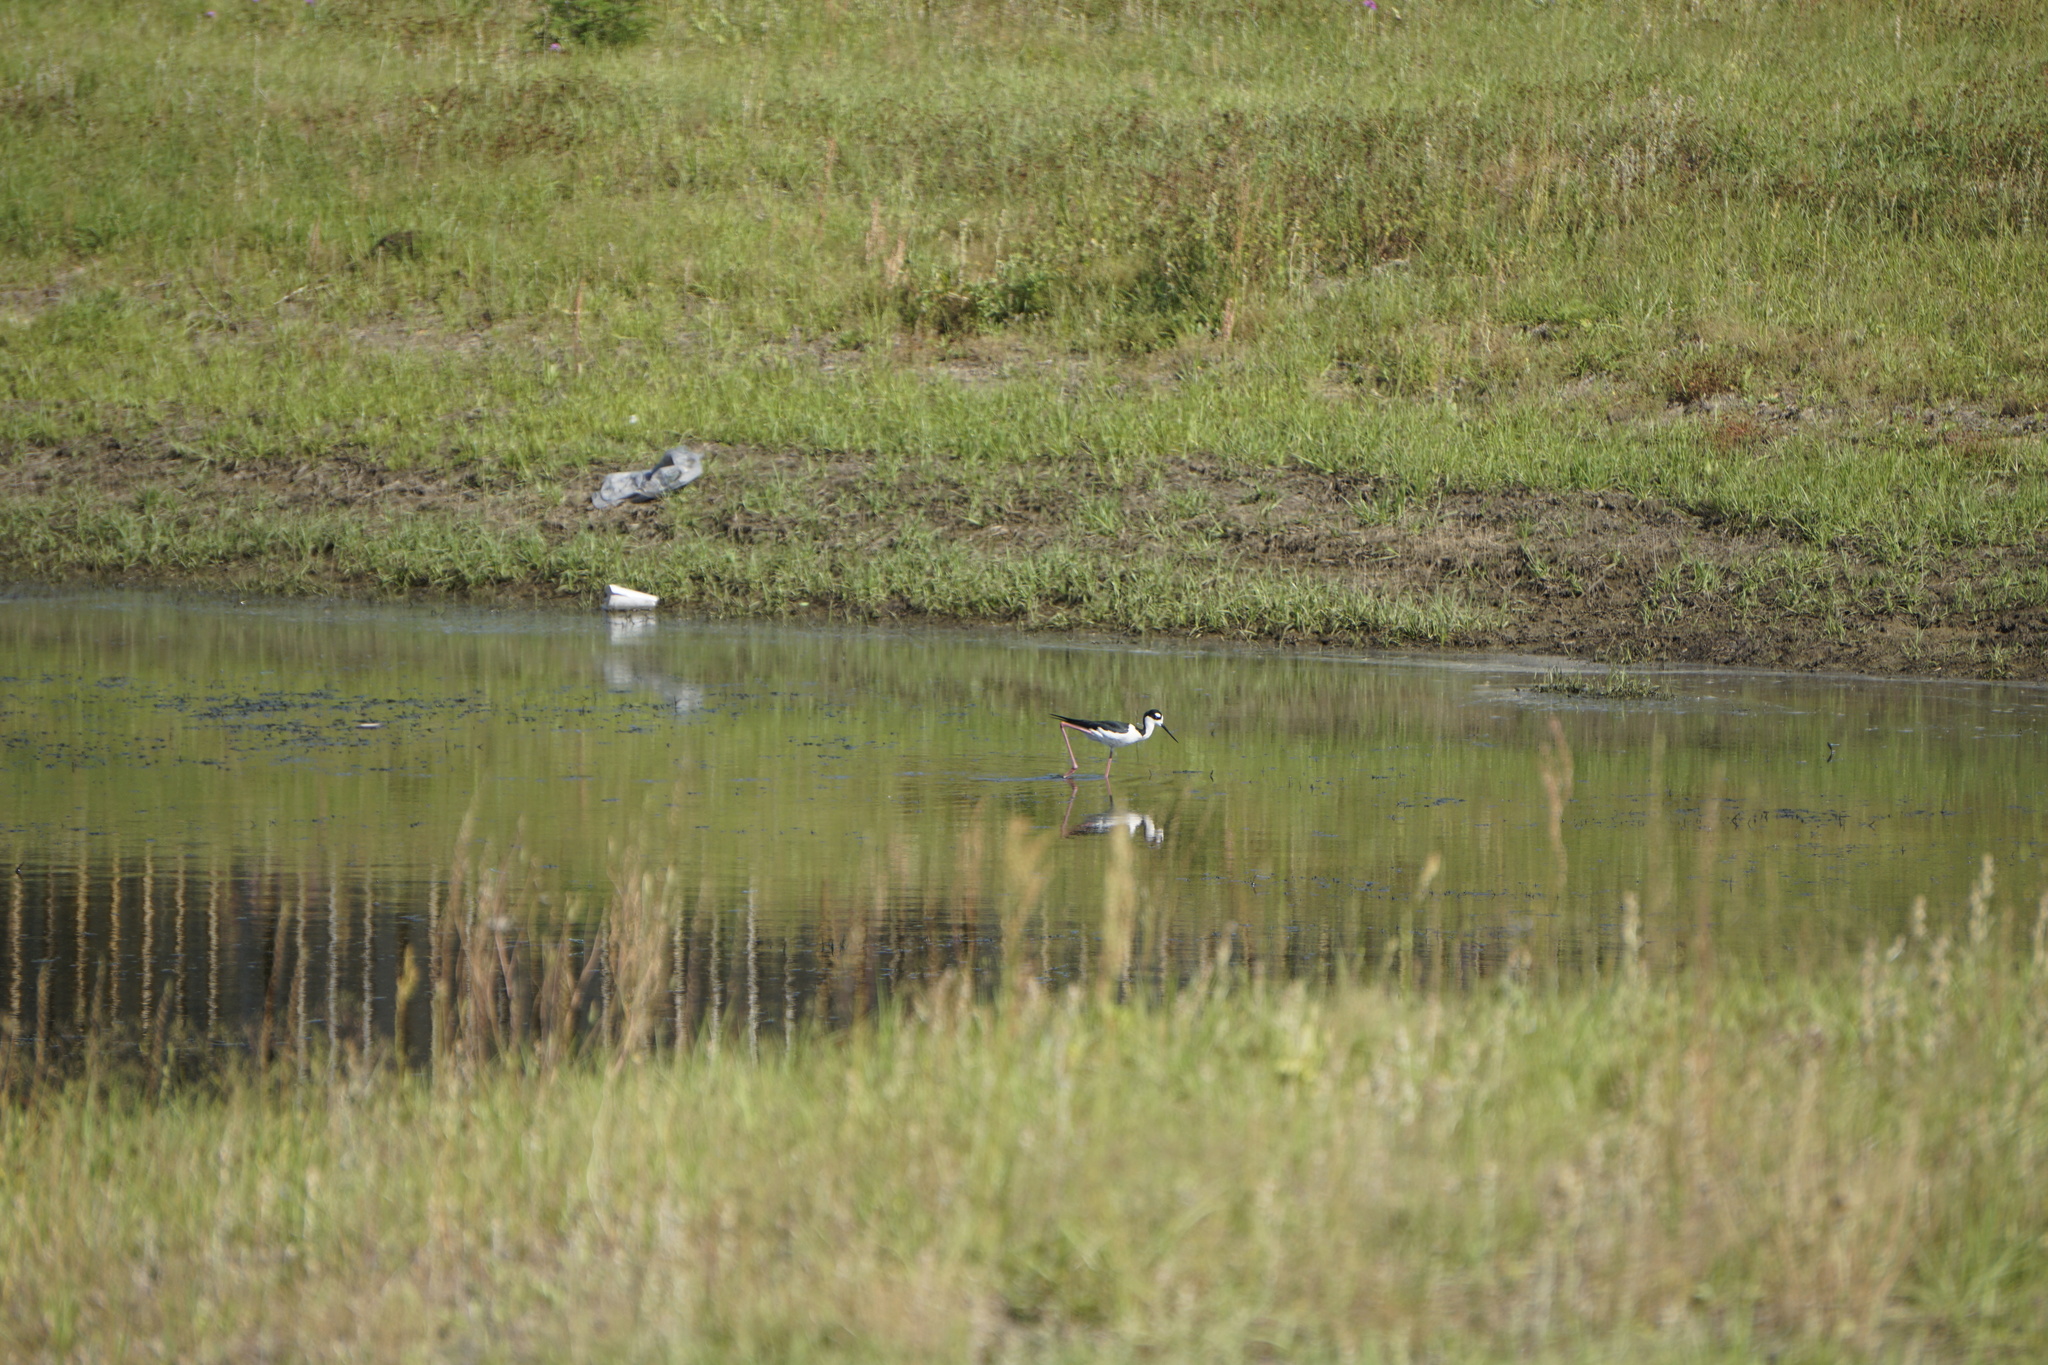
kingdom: Animalia
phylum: Chordata
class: Aves
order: Charadriiformes
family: Recurvirostridae
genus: Himantopus
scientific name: Himantopus mexicanus
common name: Black-necked stilt
